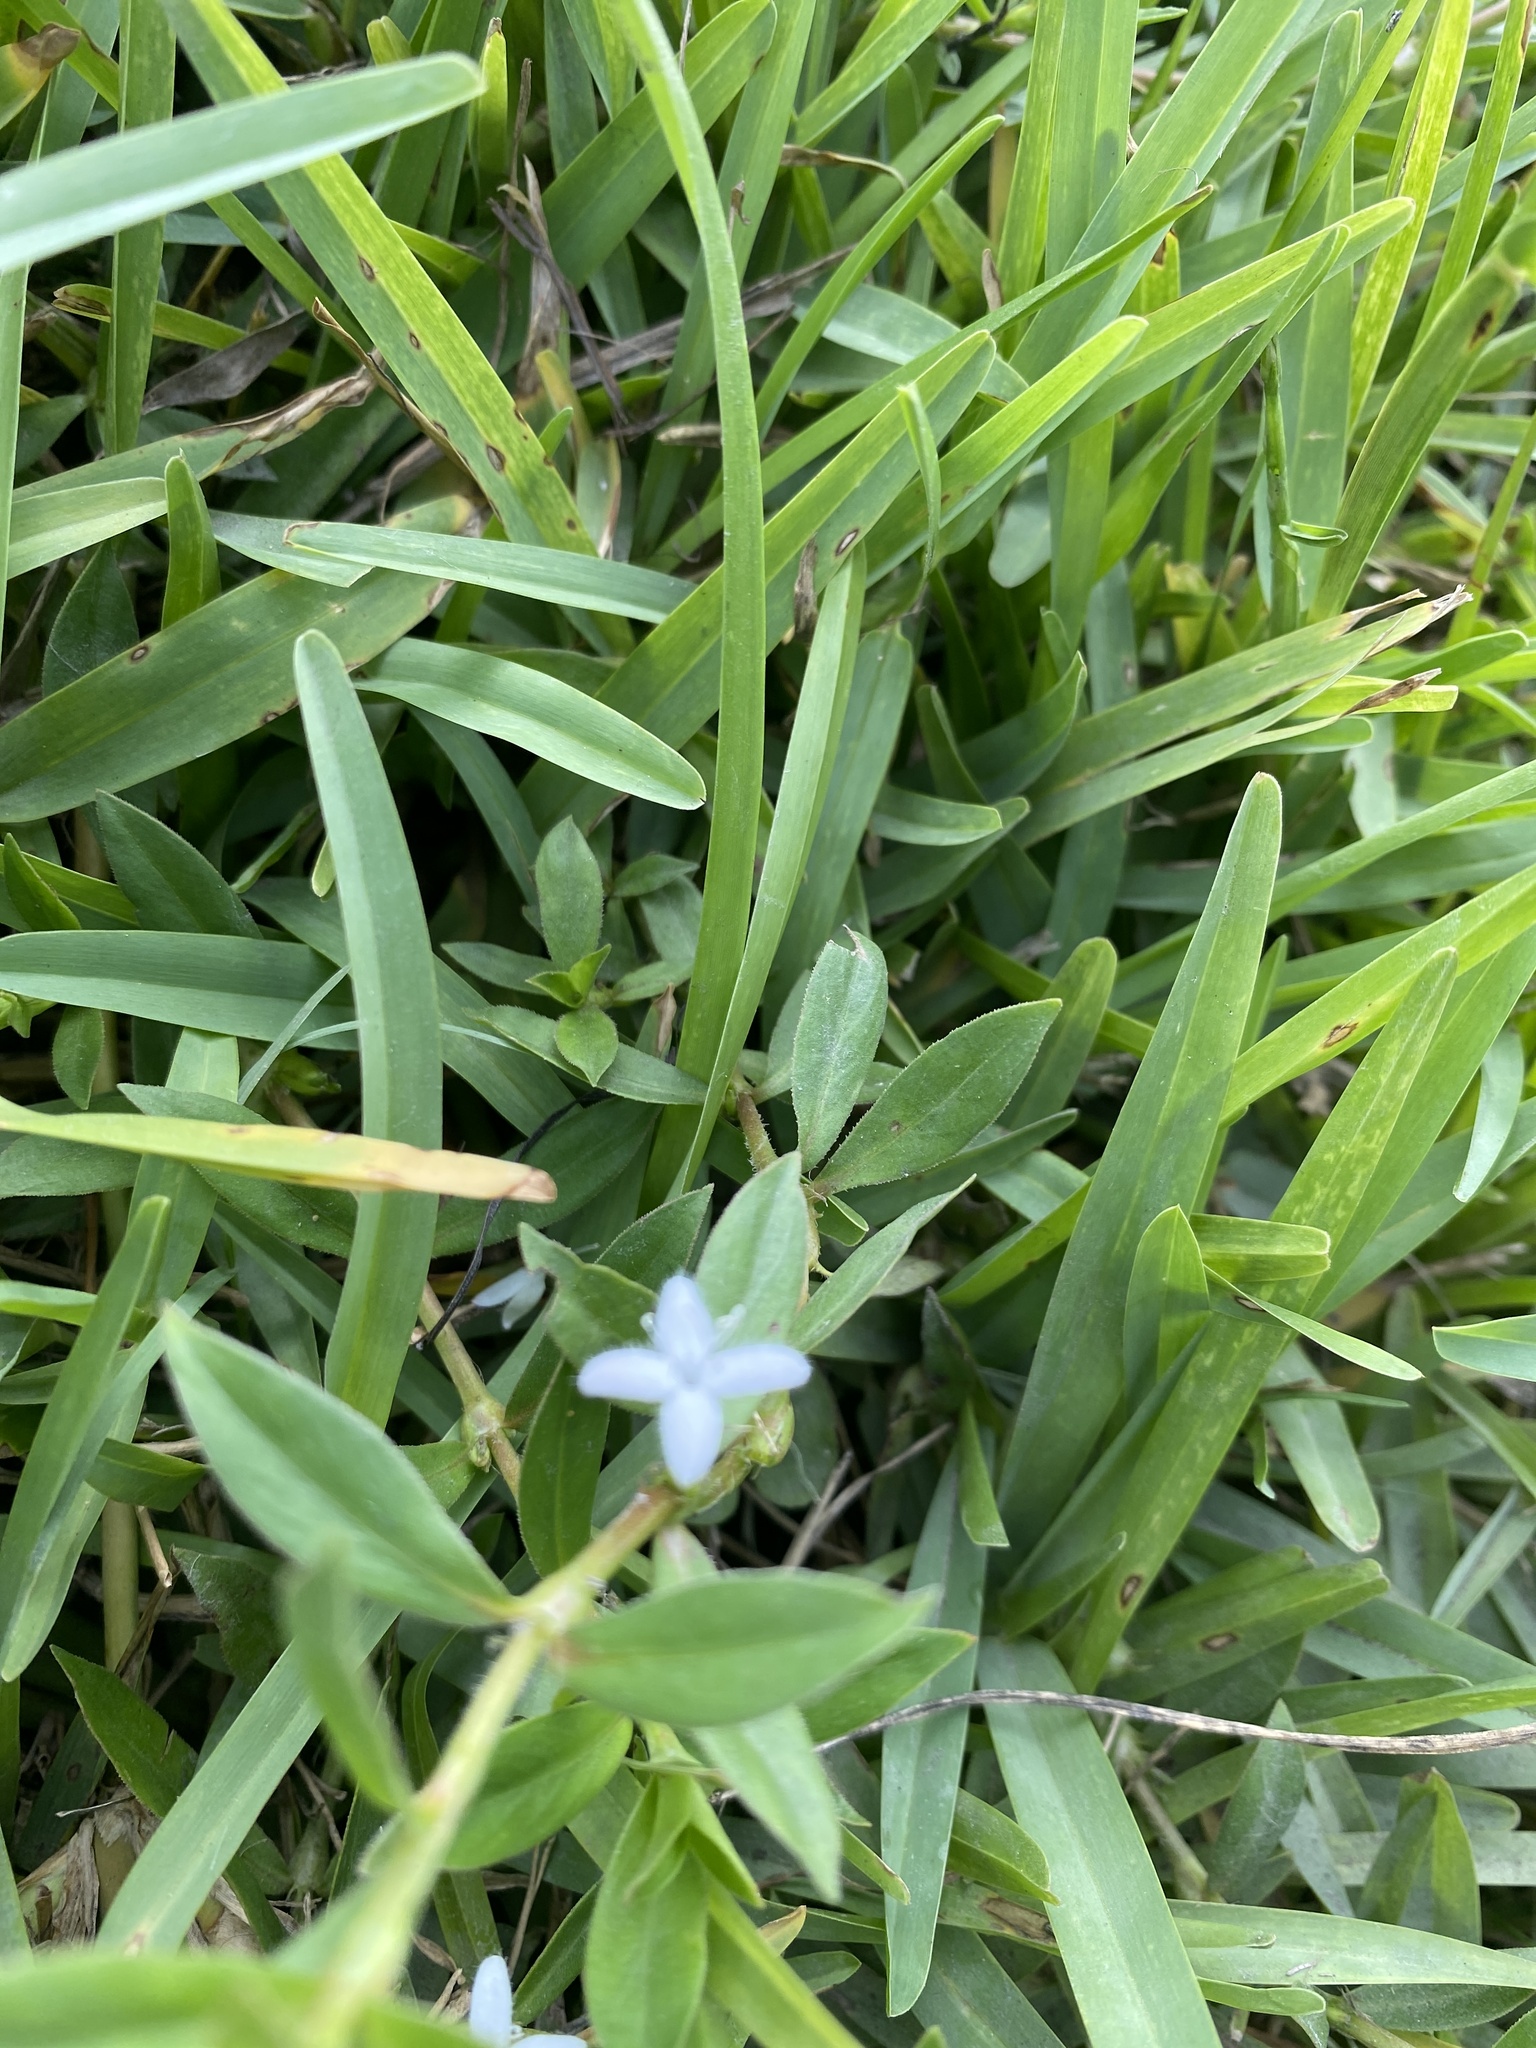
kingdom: Plantae
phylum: Tracheophyta
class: Magnoliopsida
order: Gentianales
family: Rubiaceae
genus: Diodia
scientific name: Diodia virginiana
